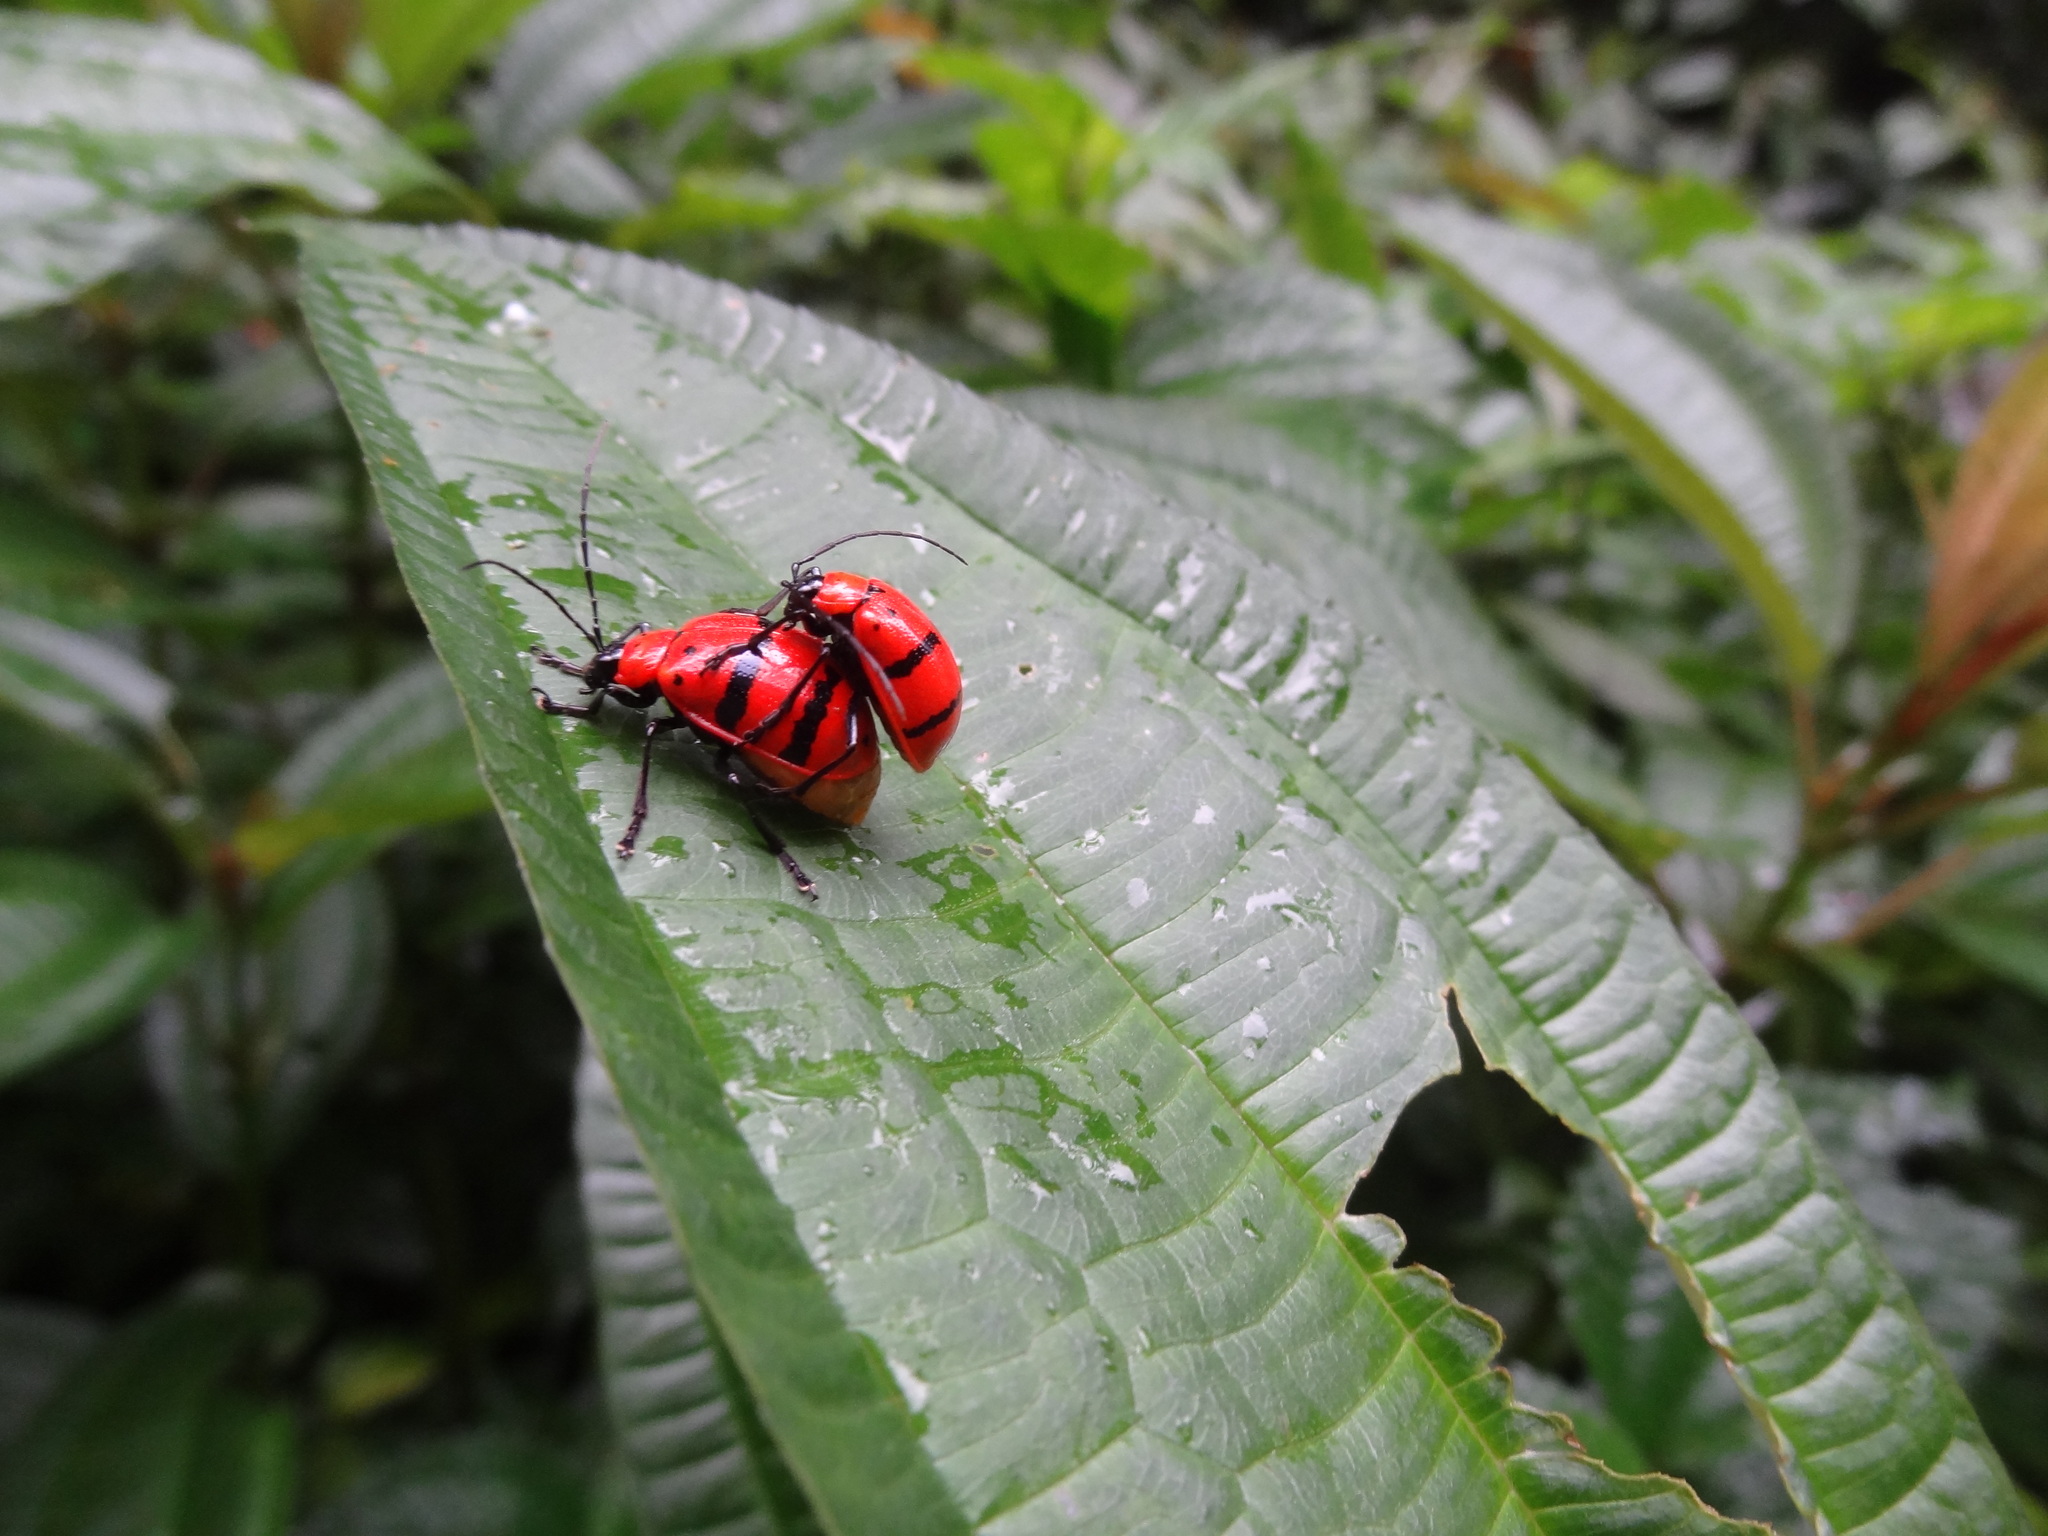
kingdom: Animalia
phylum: Arthropoda
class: Insecta
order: Coleoptera
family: Chrysomelidae
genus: Meristata
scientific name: Meristata
